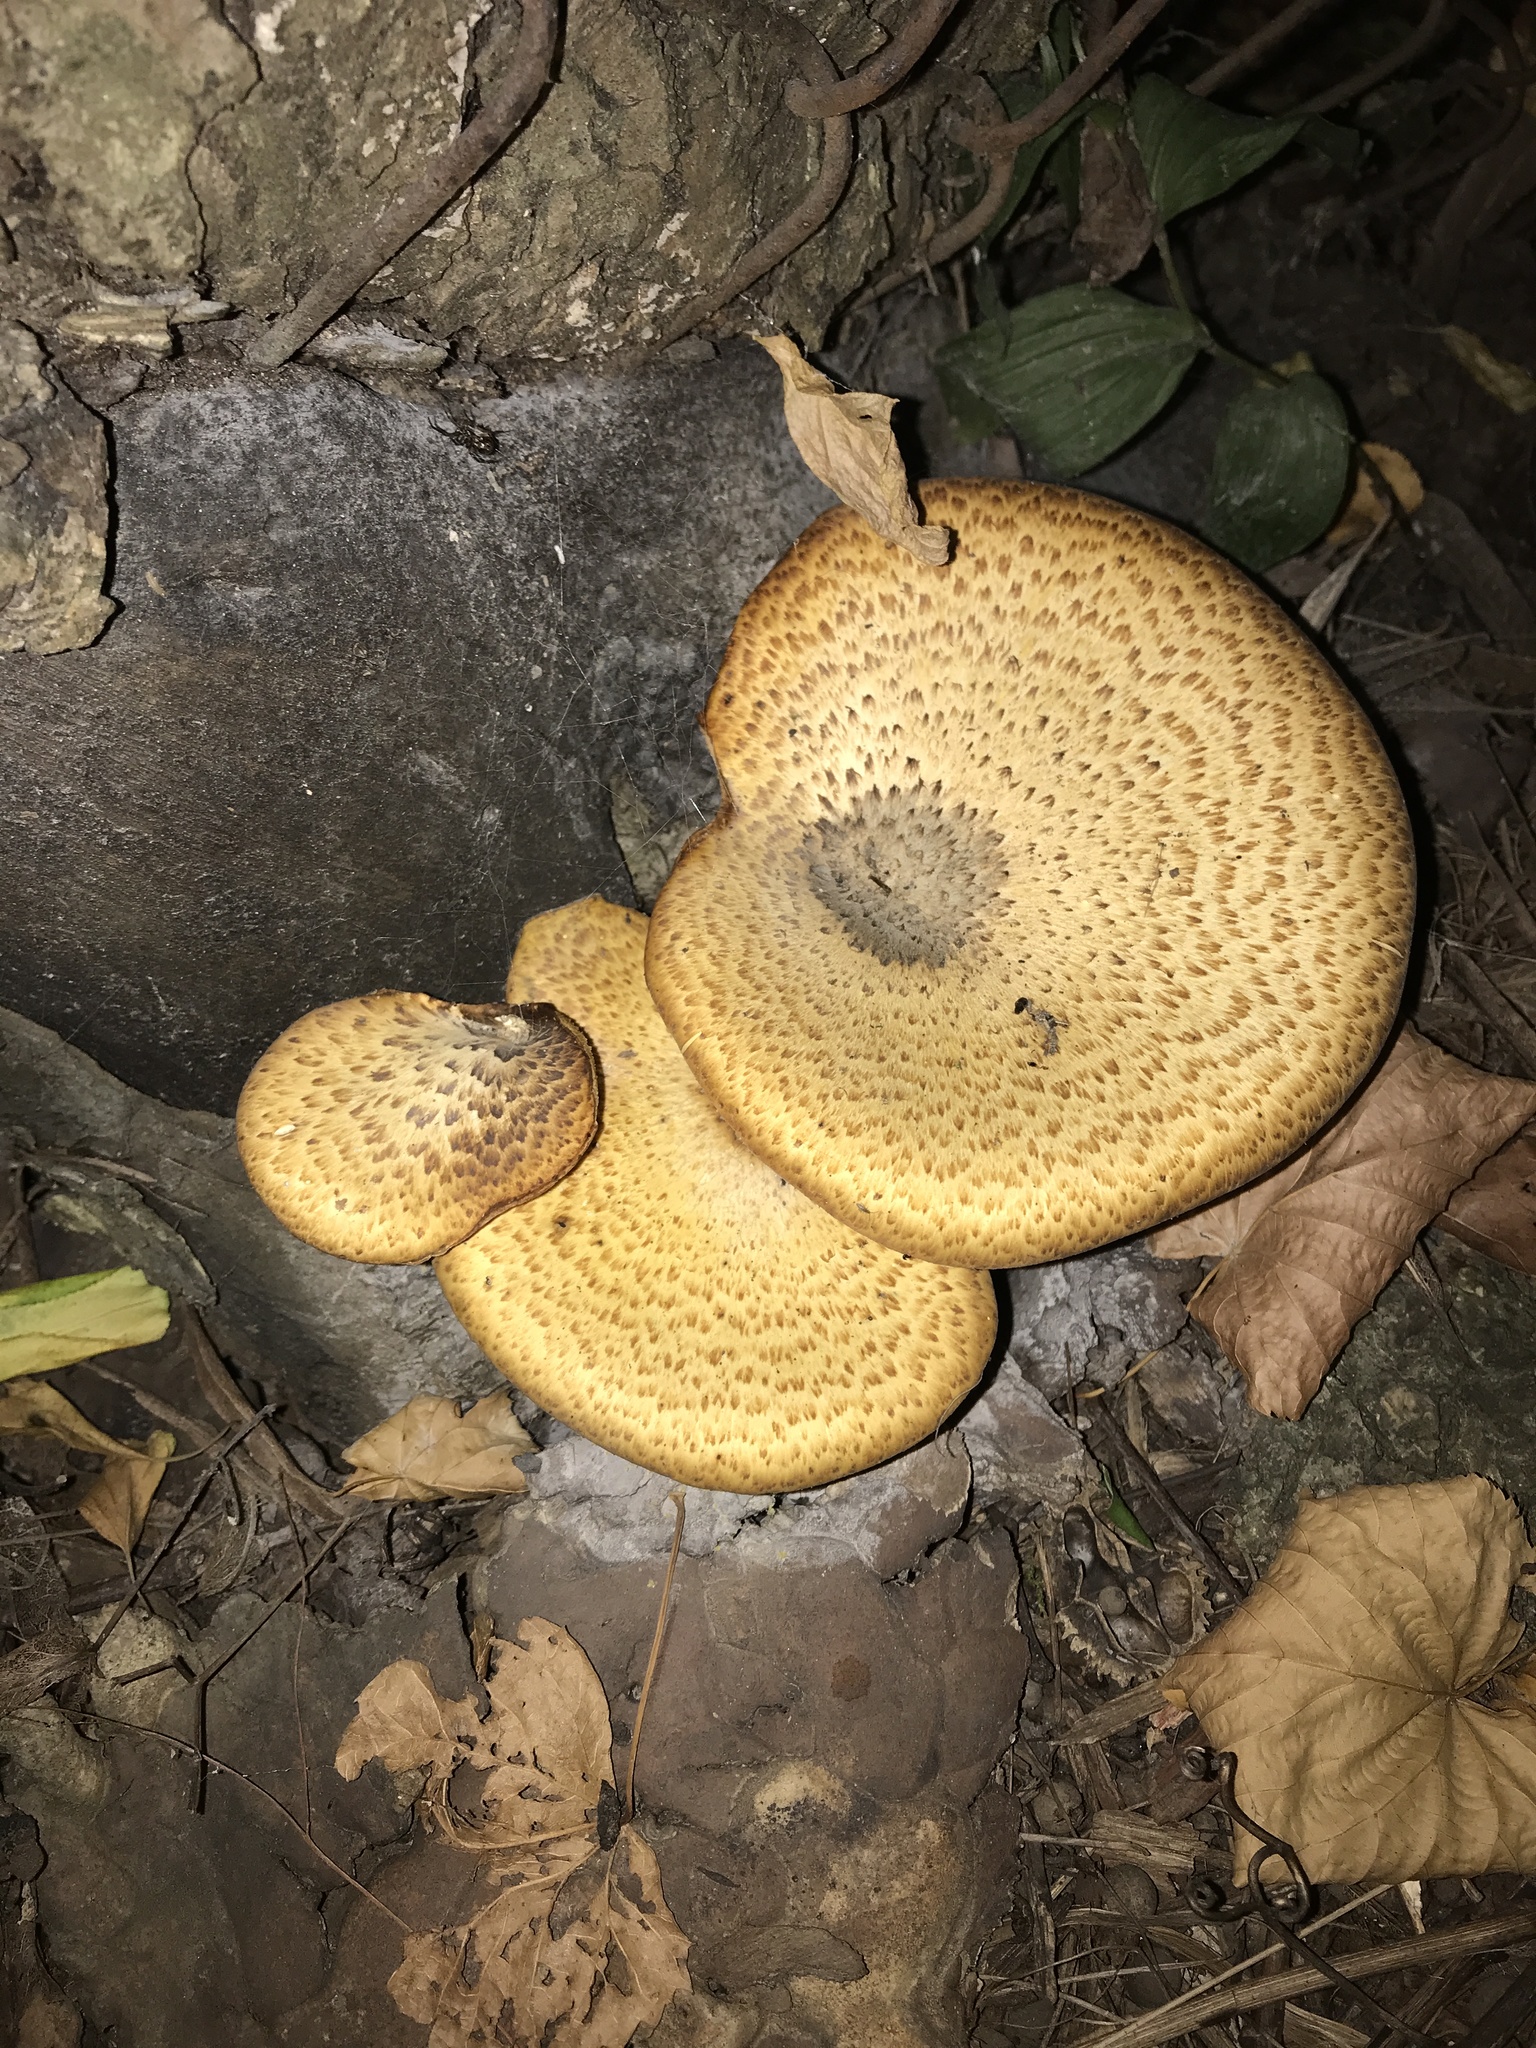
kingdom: Fungi
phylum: Basidiomycota
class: Agaricomycetes
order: Polyporales
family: Polyporaceae
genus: Cerioporus
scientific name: Cerioporus squamosus
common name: Dryad's saddle
